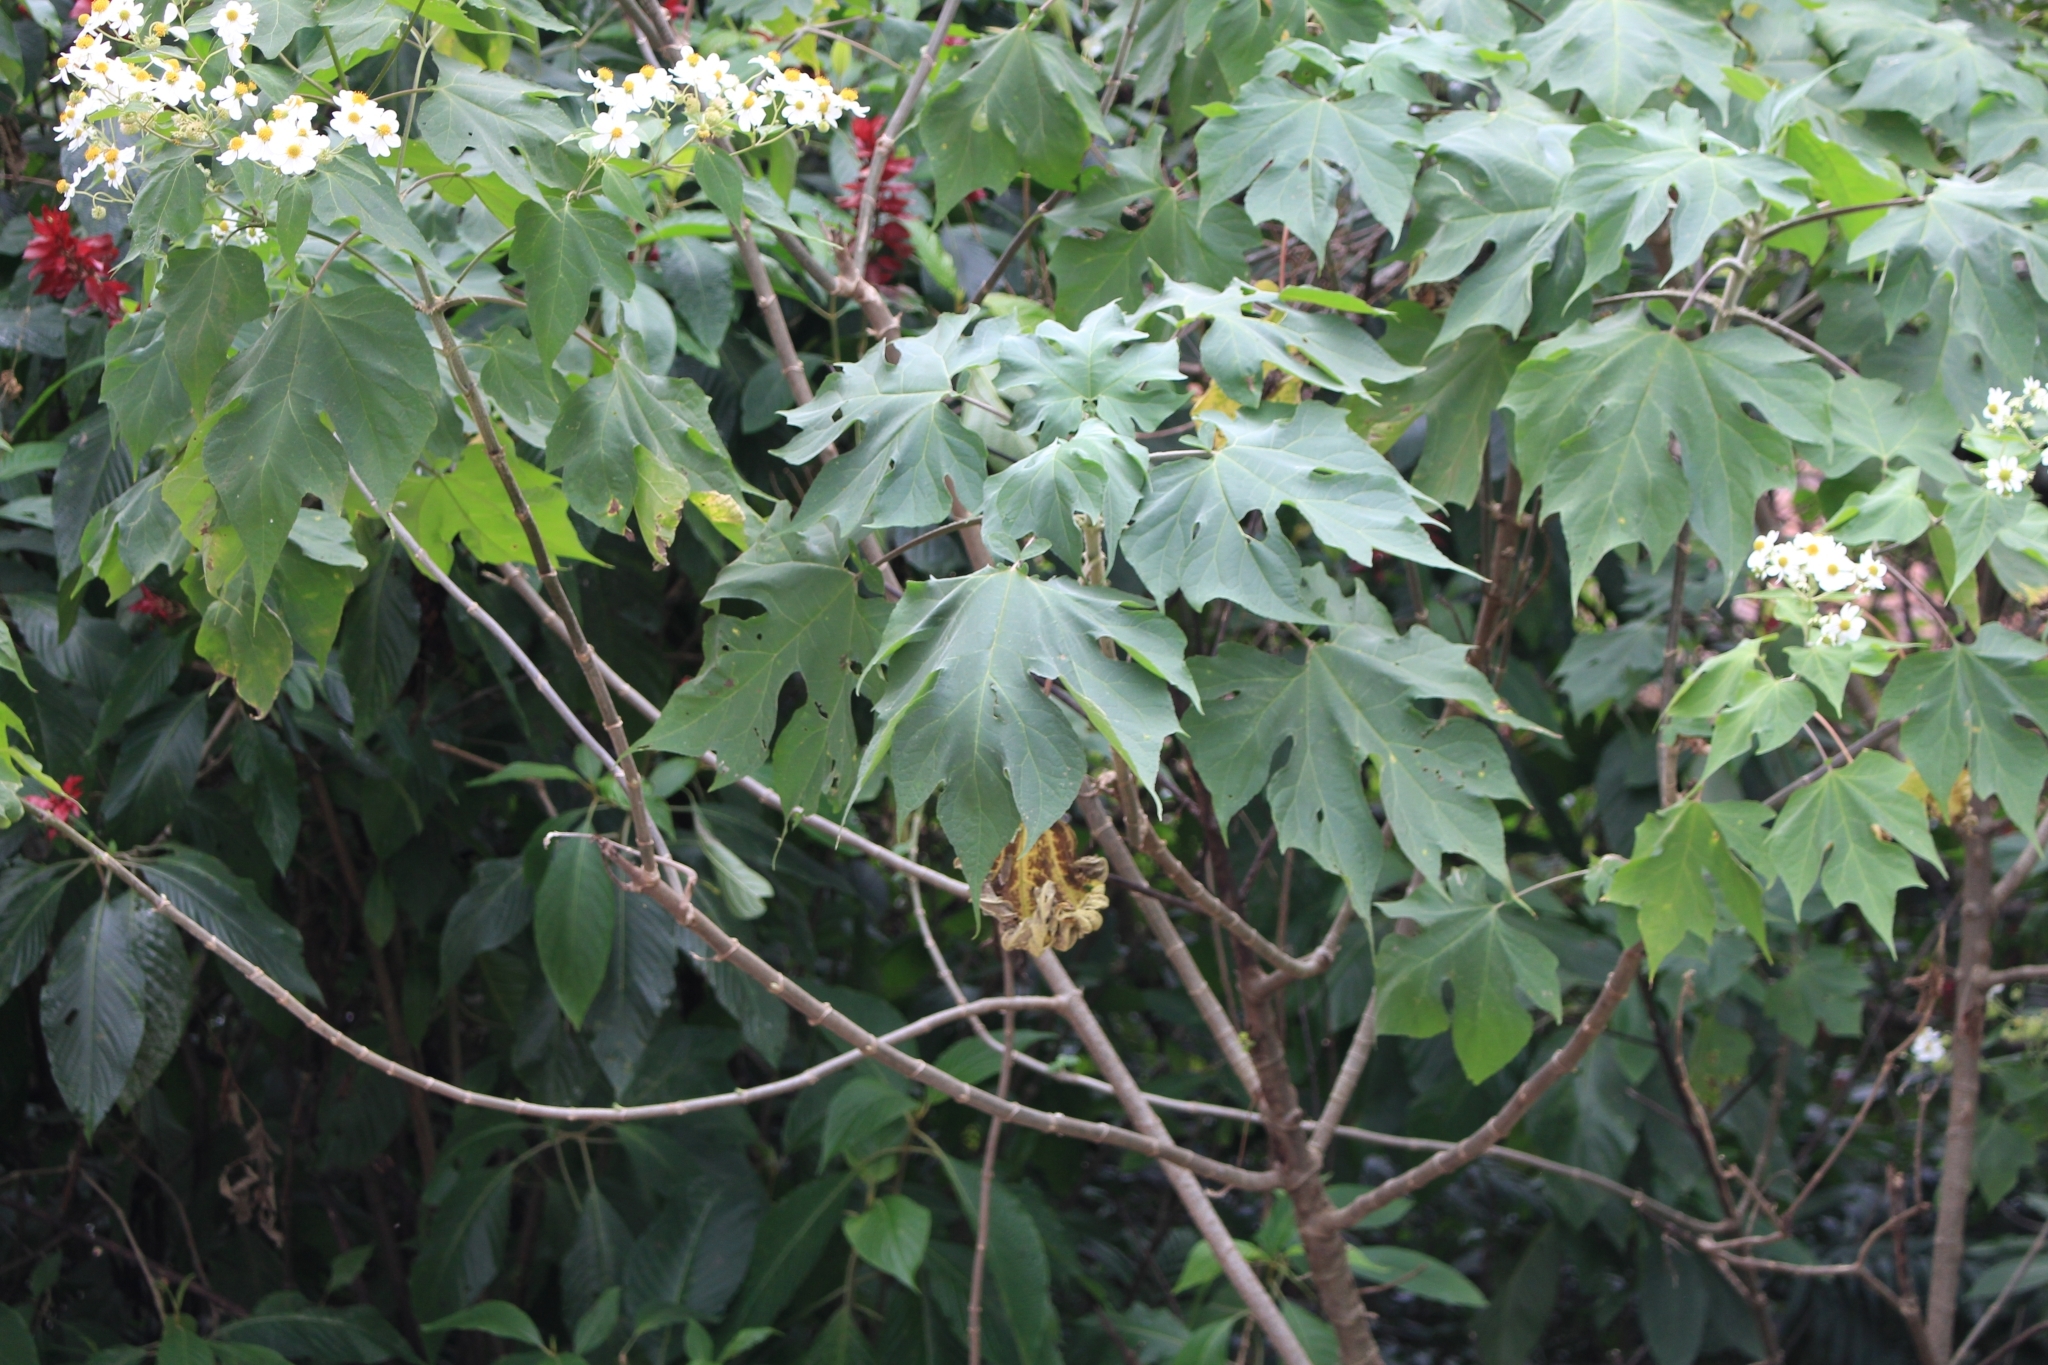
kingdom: Plantae
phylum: Tracheophyta
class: Magnoliopsida
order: Asterales
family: Asteraceae
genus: Montanoa
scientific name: Montanoa hibiscifolia
